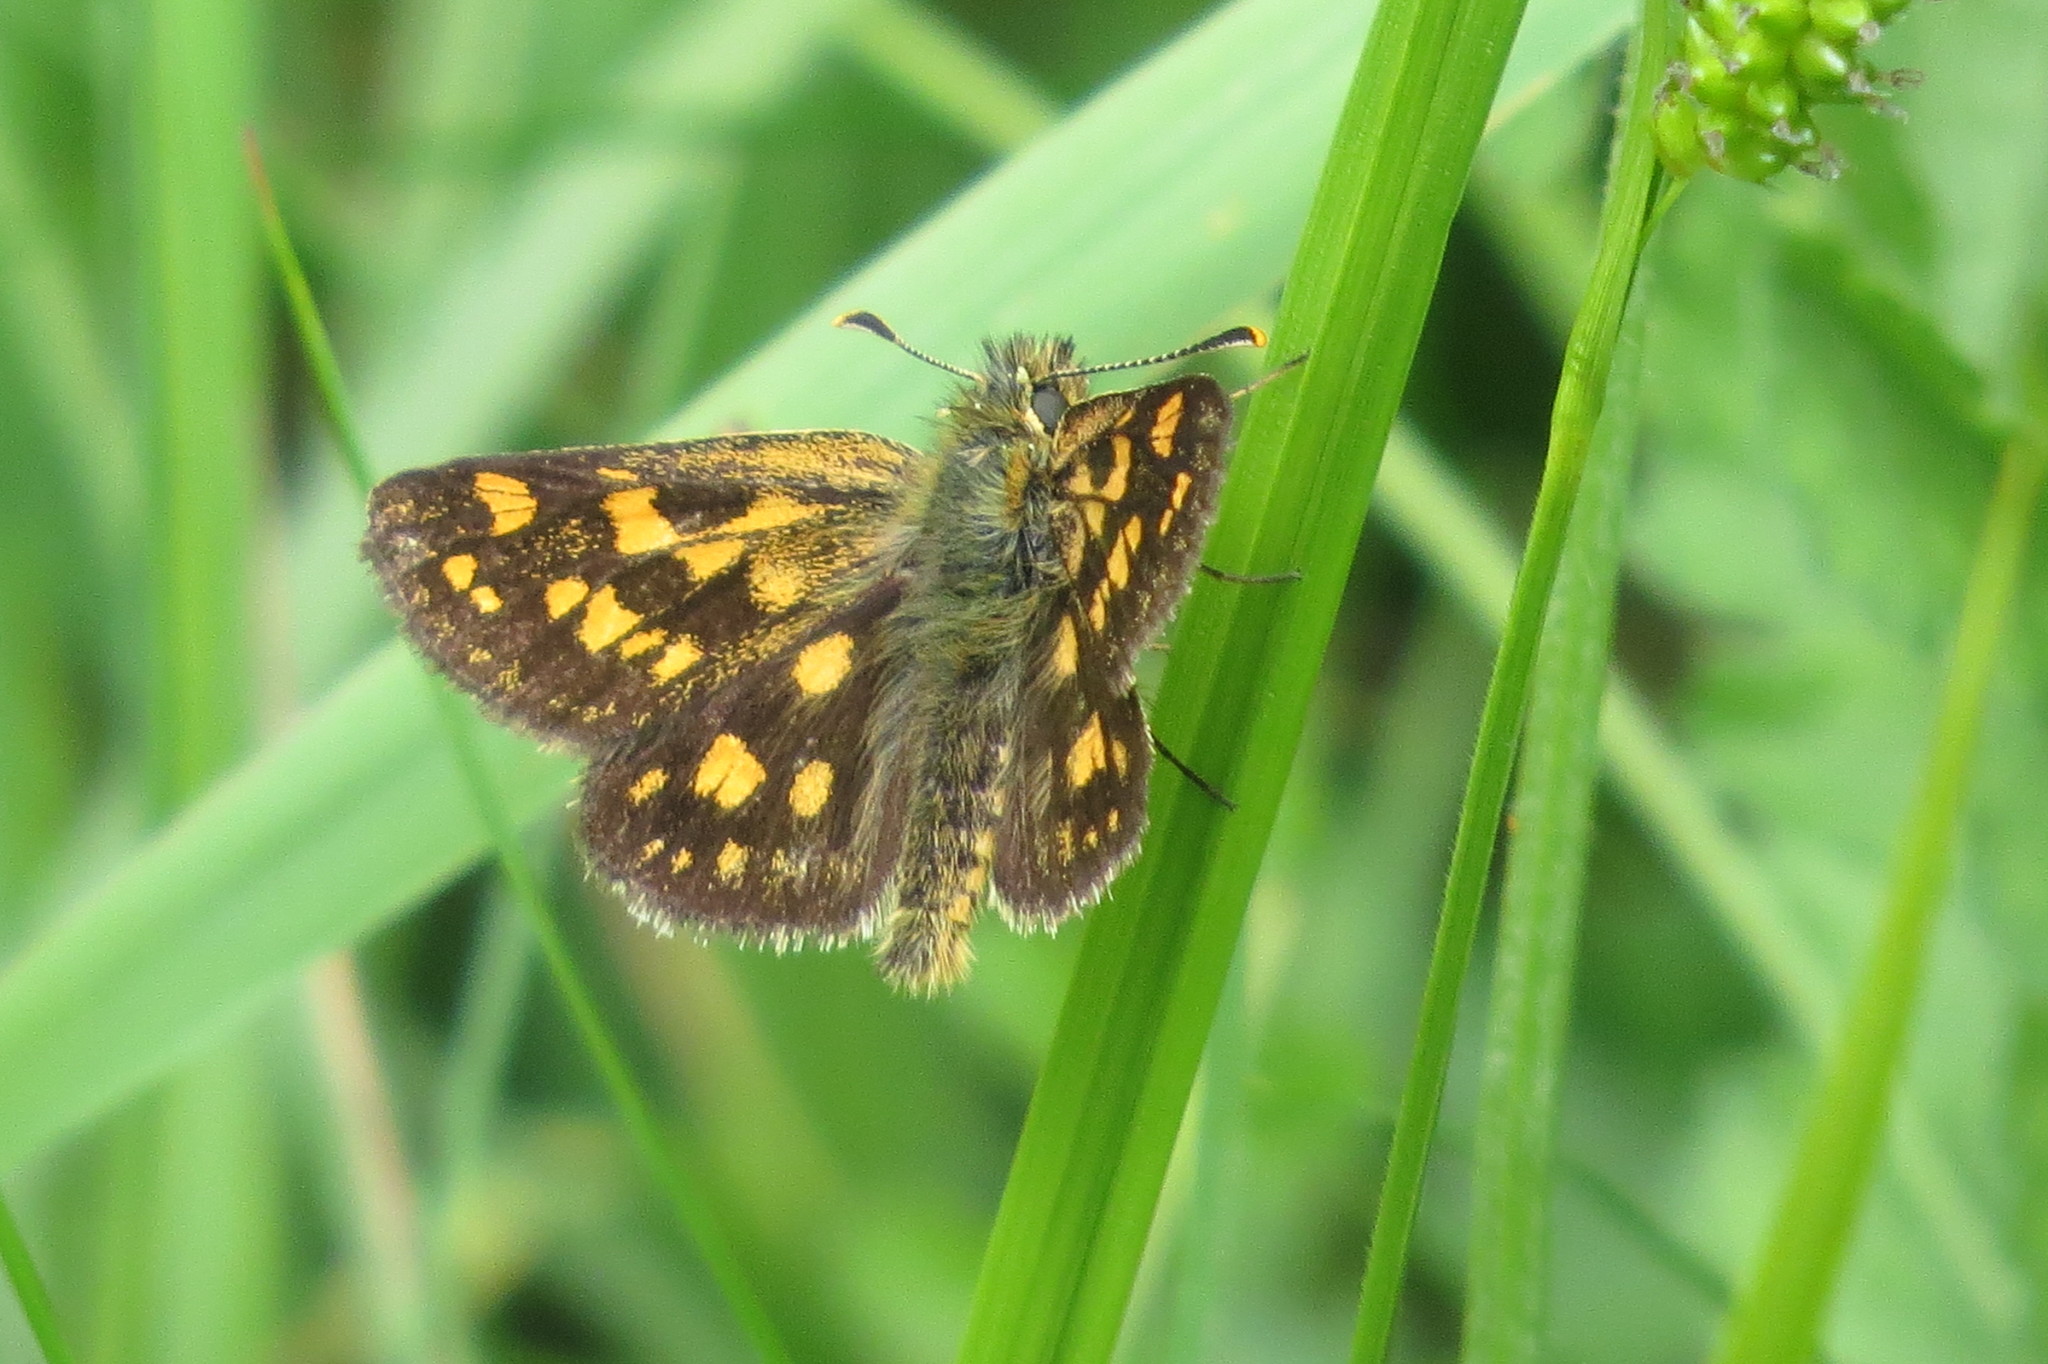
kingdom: Animalia
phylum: Arthropoda
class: Insecta
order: Lepidoptera
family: Hesperiidae
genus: Carterocephalus
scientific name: Carterocephalus palaemon
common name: Chequered skipper
